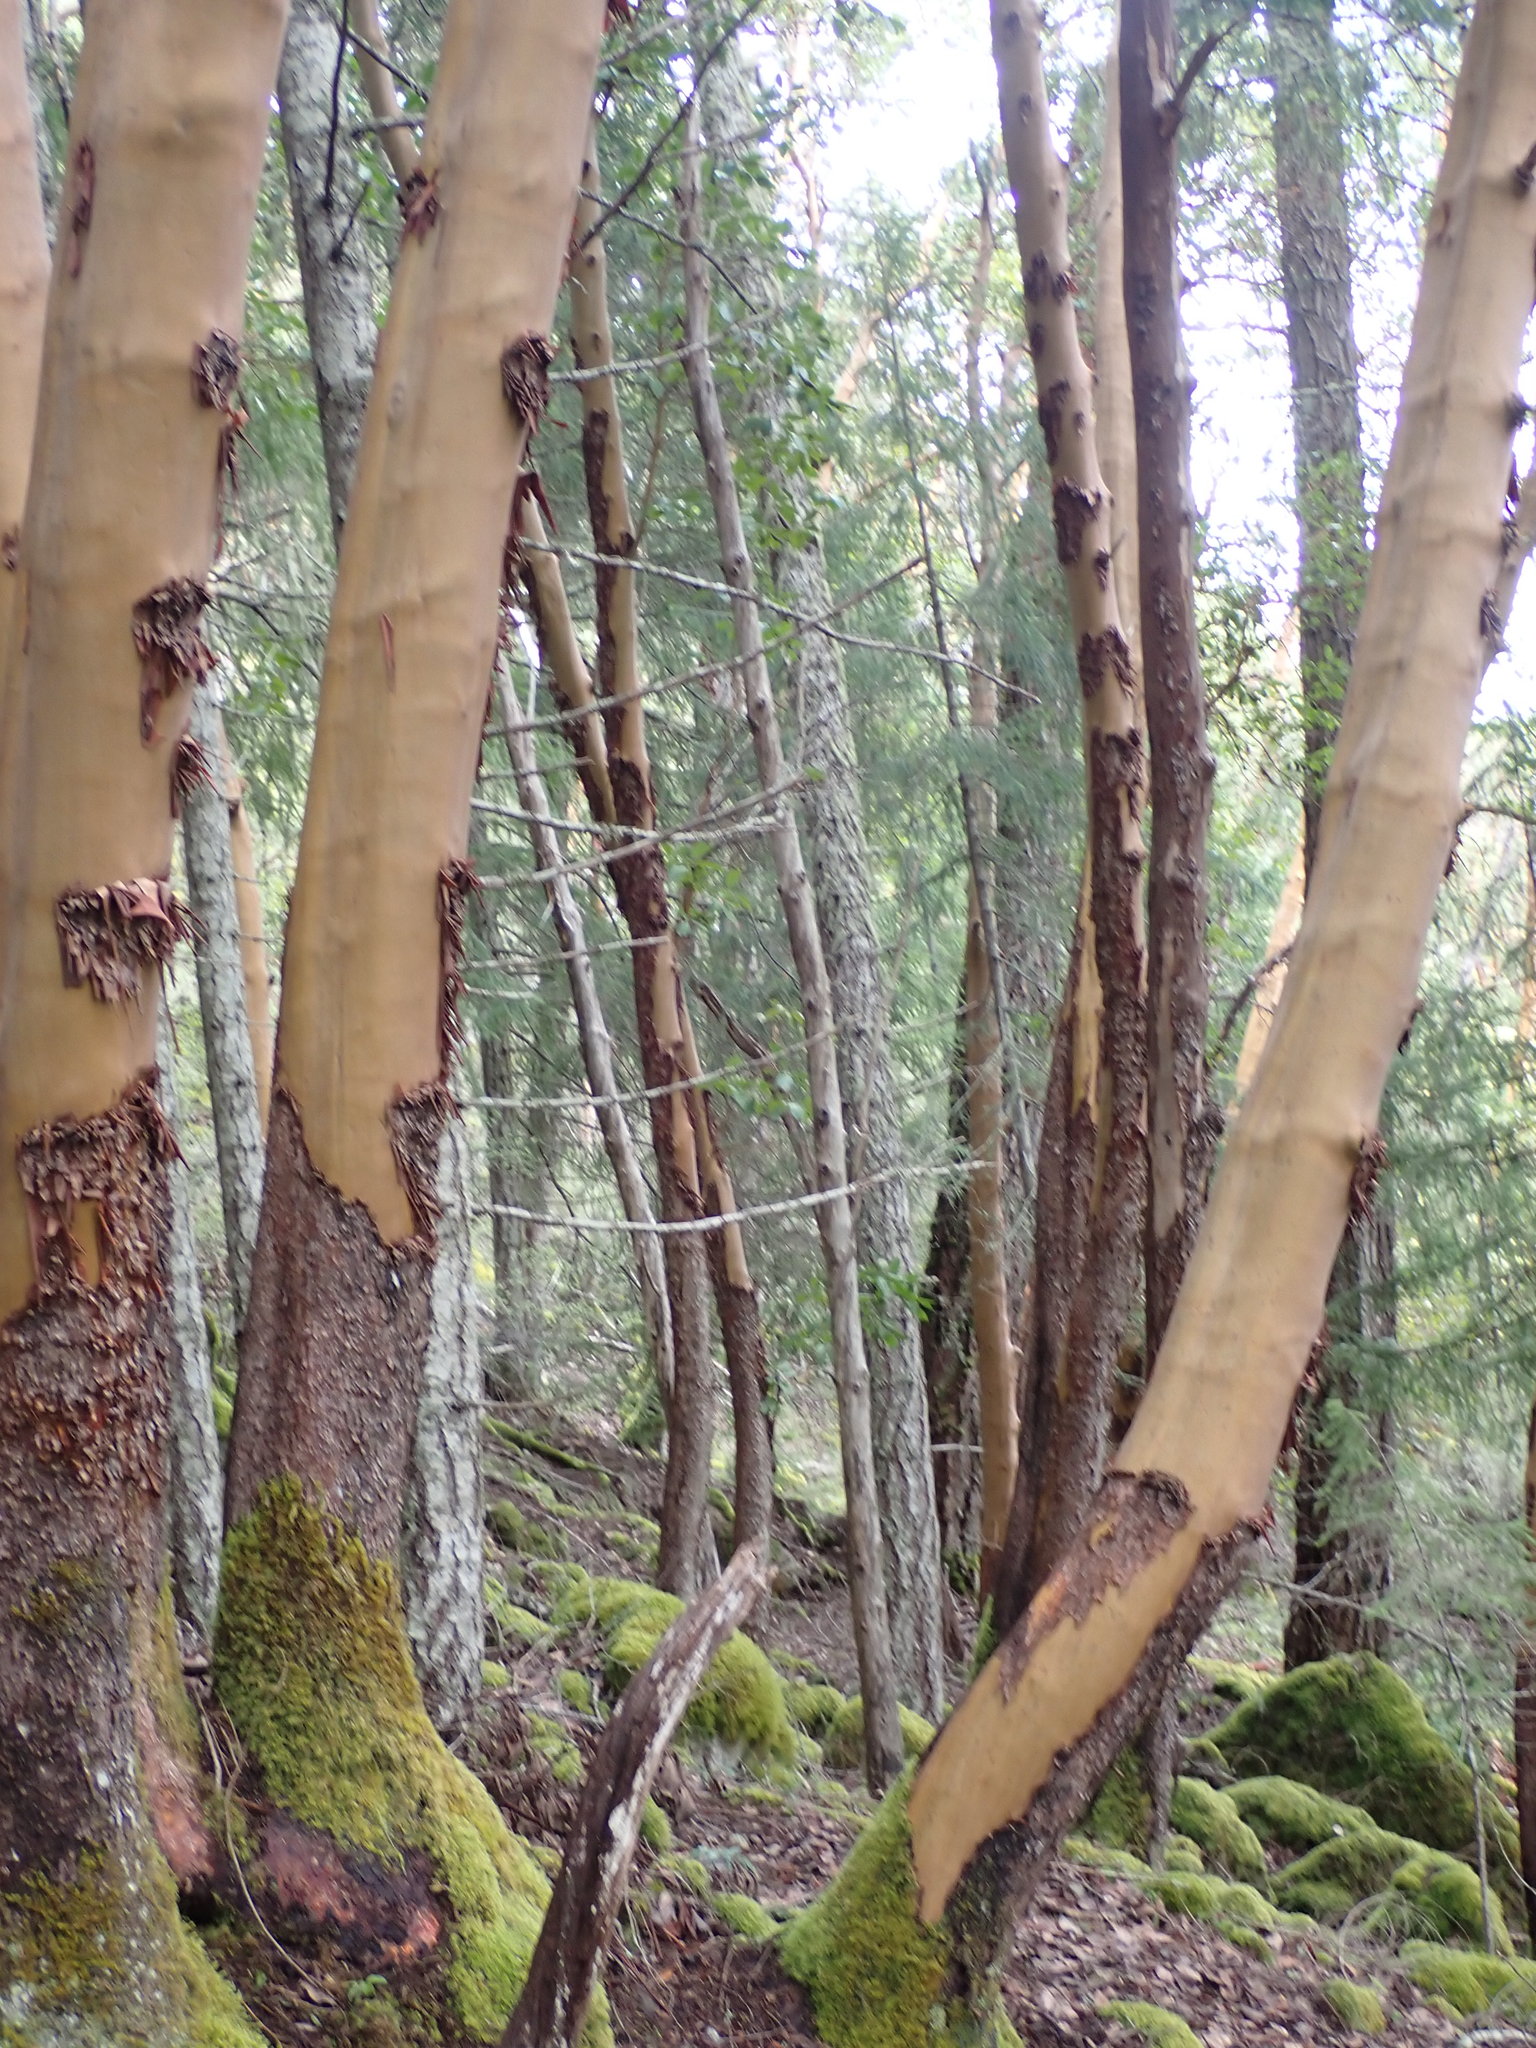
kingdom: Plantae
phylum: Tracheophyta
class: Magnoliopsida
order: Ericales
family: Ericaceae
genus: Arbutus
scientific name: Arbutus menziesii
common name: Pacific madrone
